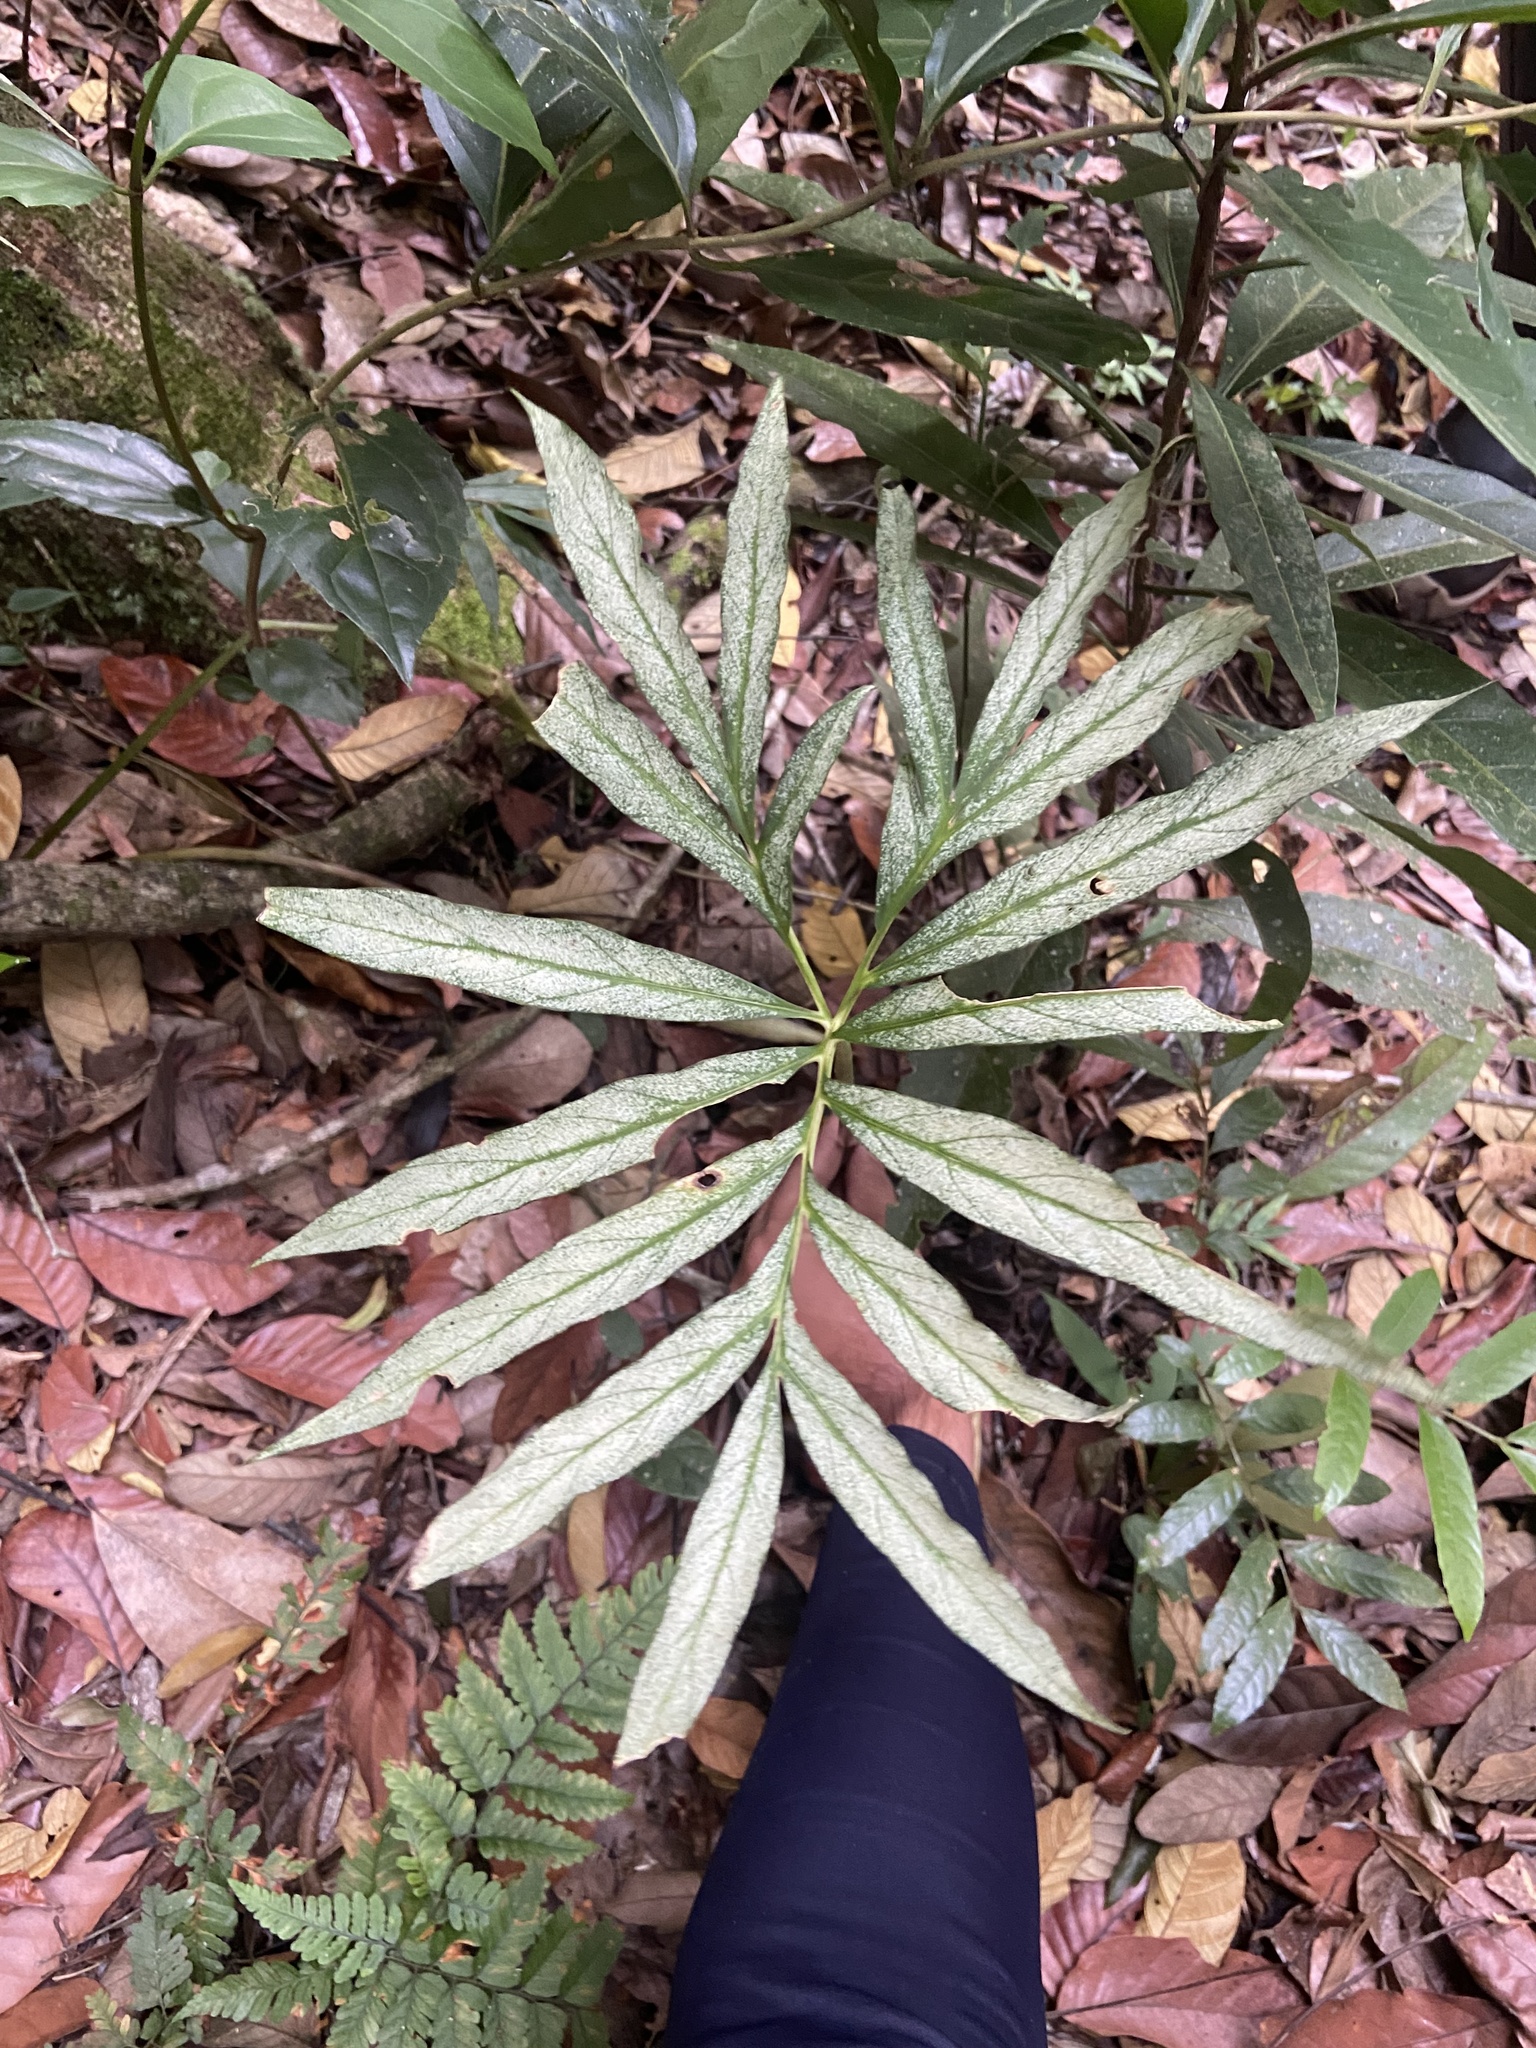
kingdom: Plantae
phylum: Tracheophyta
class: Liliopsida
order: Alismatales
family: Araceae
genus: Asterostigma
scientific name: Asterostigma lombardii
